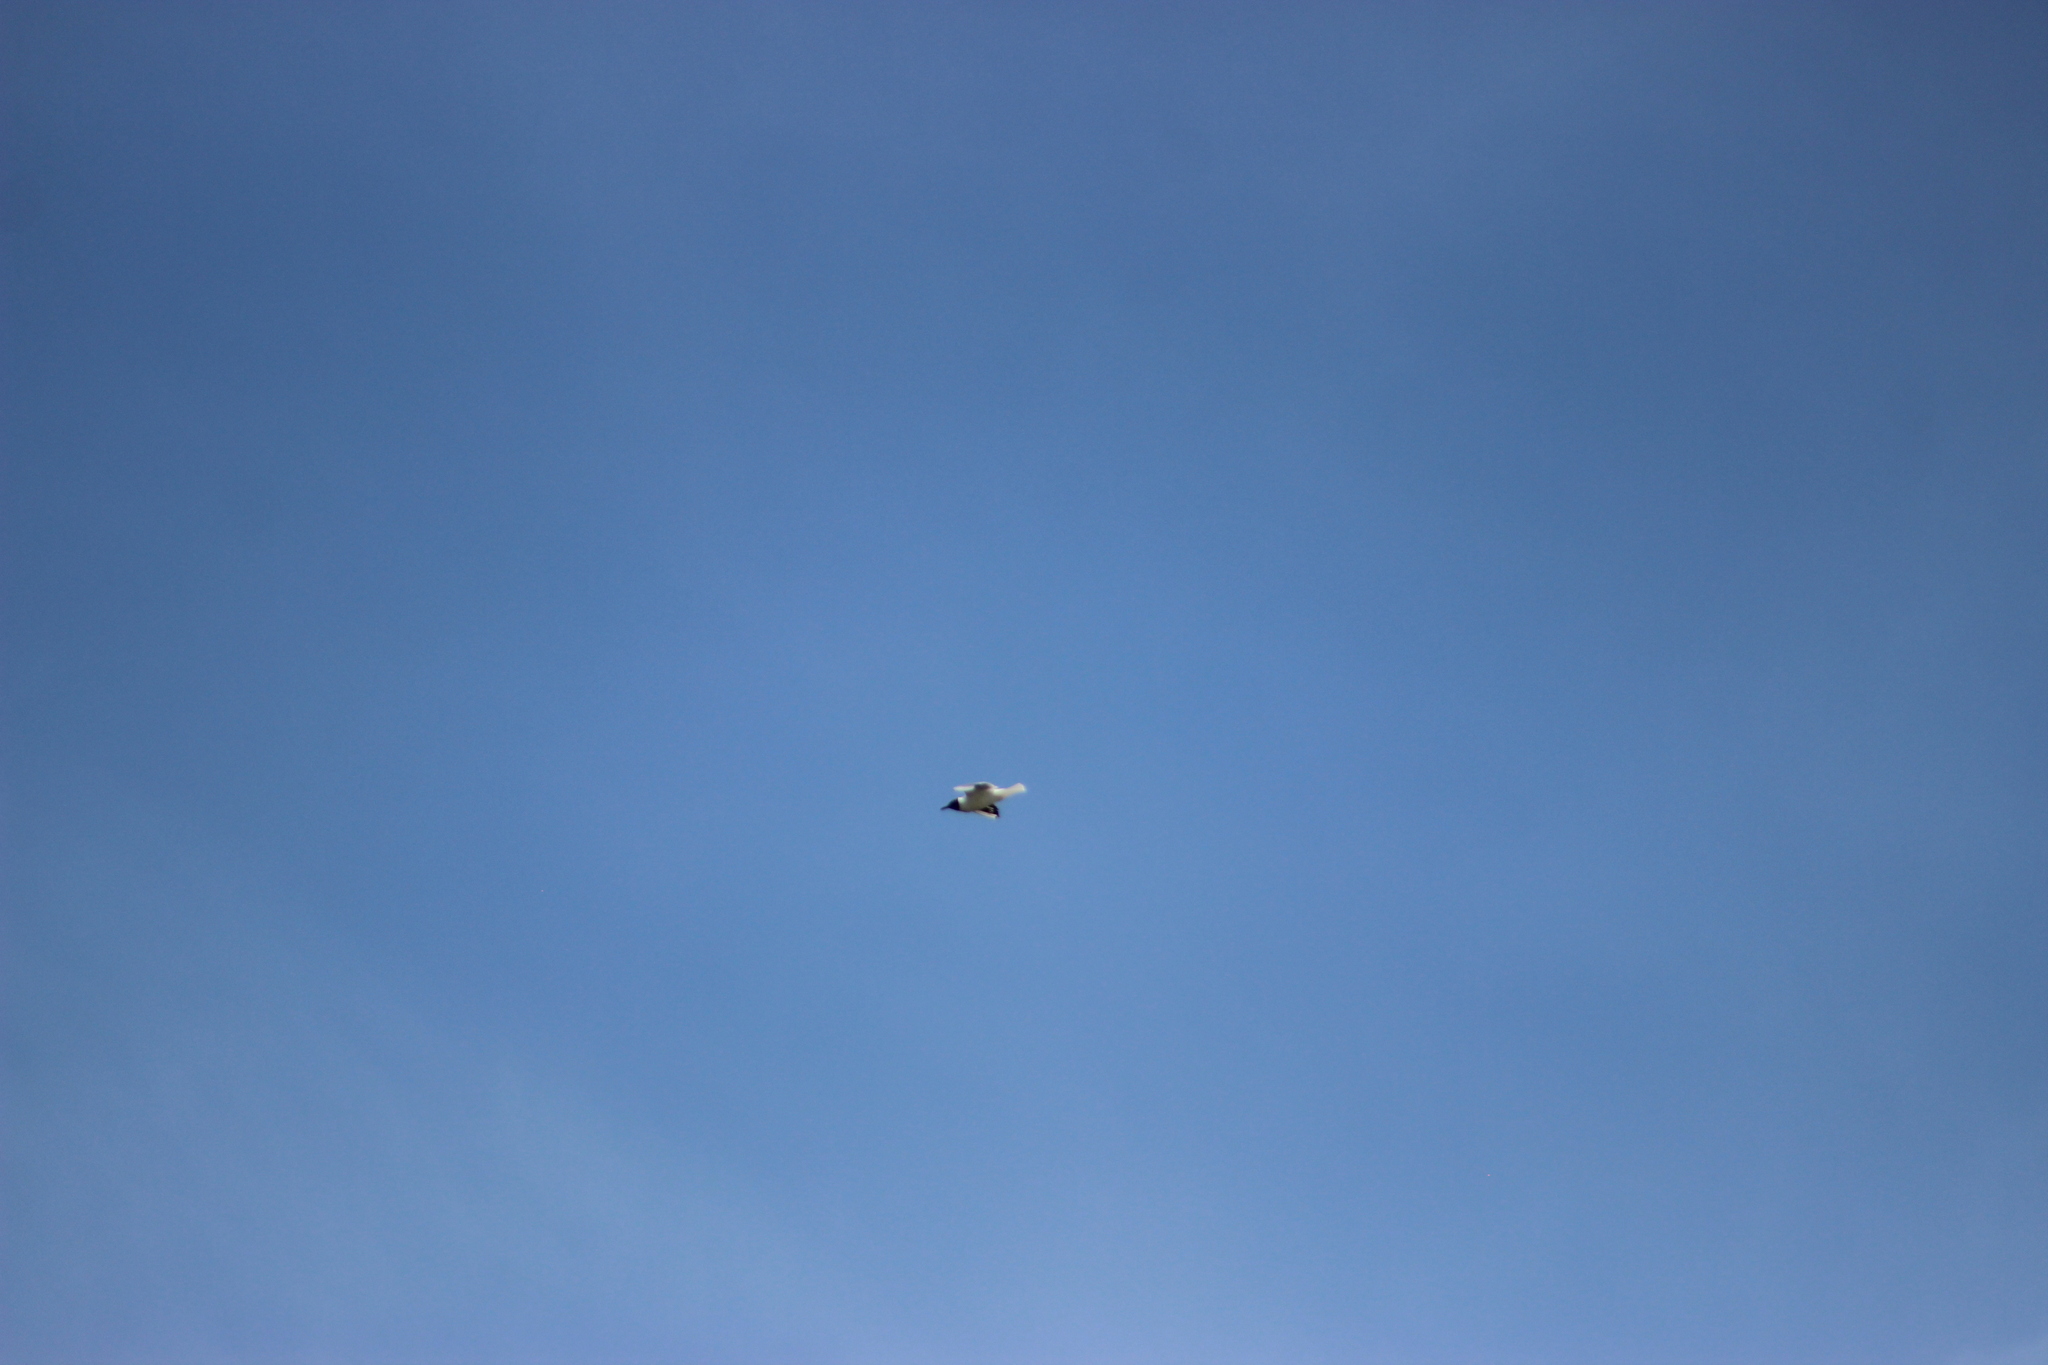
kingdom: Animalia
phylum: Chordata
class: Aves
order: Charadriiformes
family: Laridae
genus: Chroicocephalus
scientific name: Chroicocephalus ridibundus
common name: Black-headed gull
